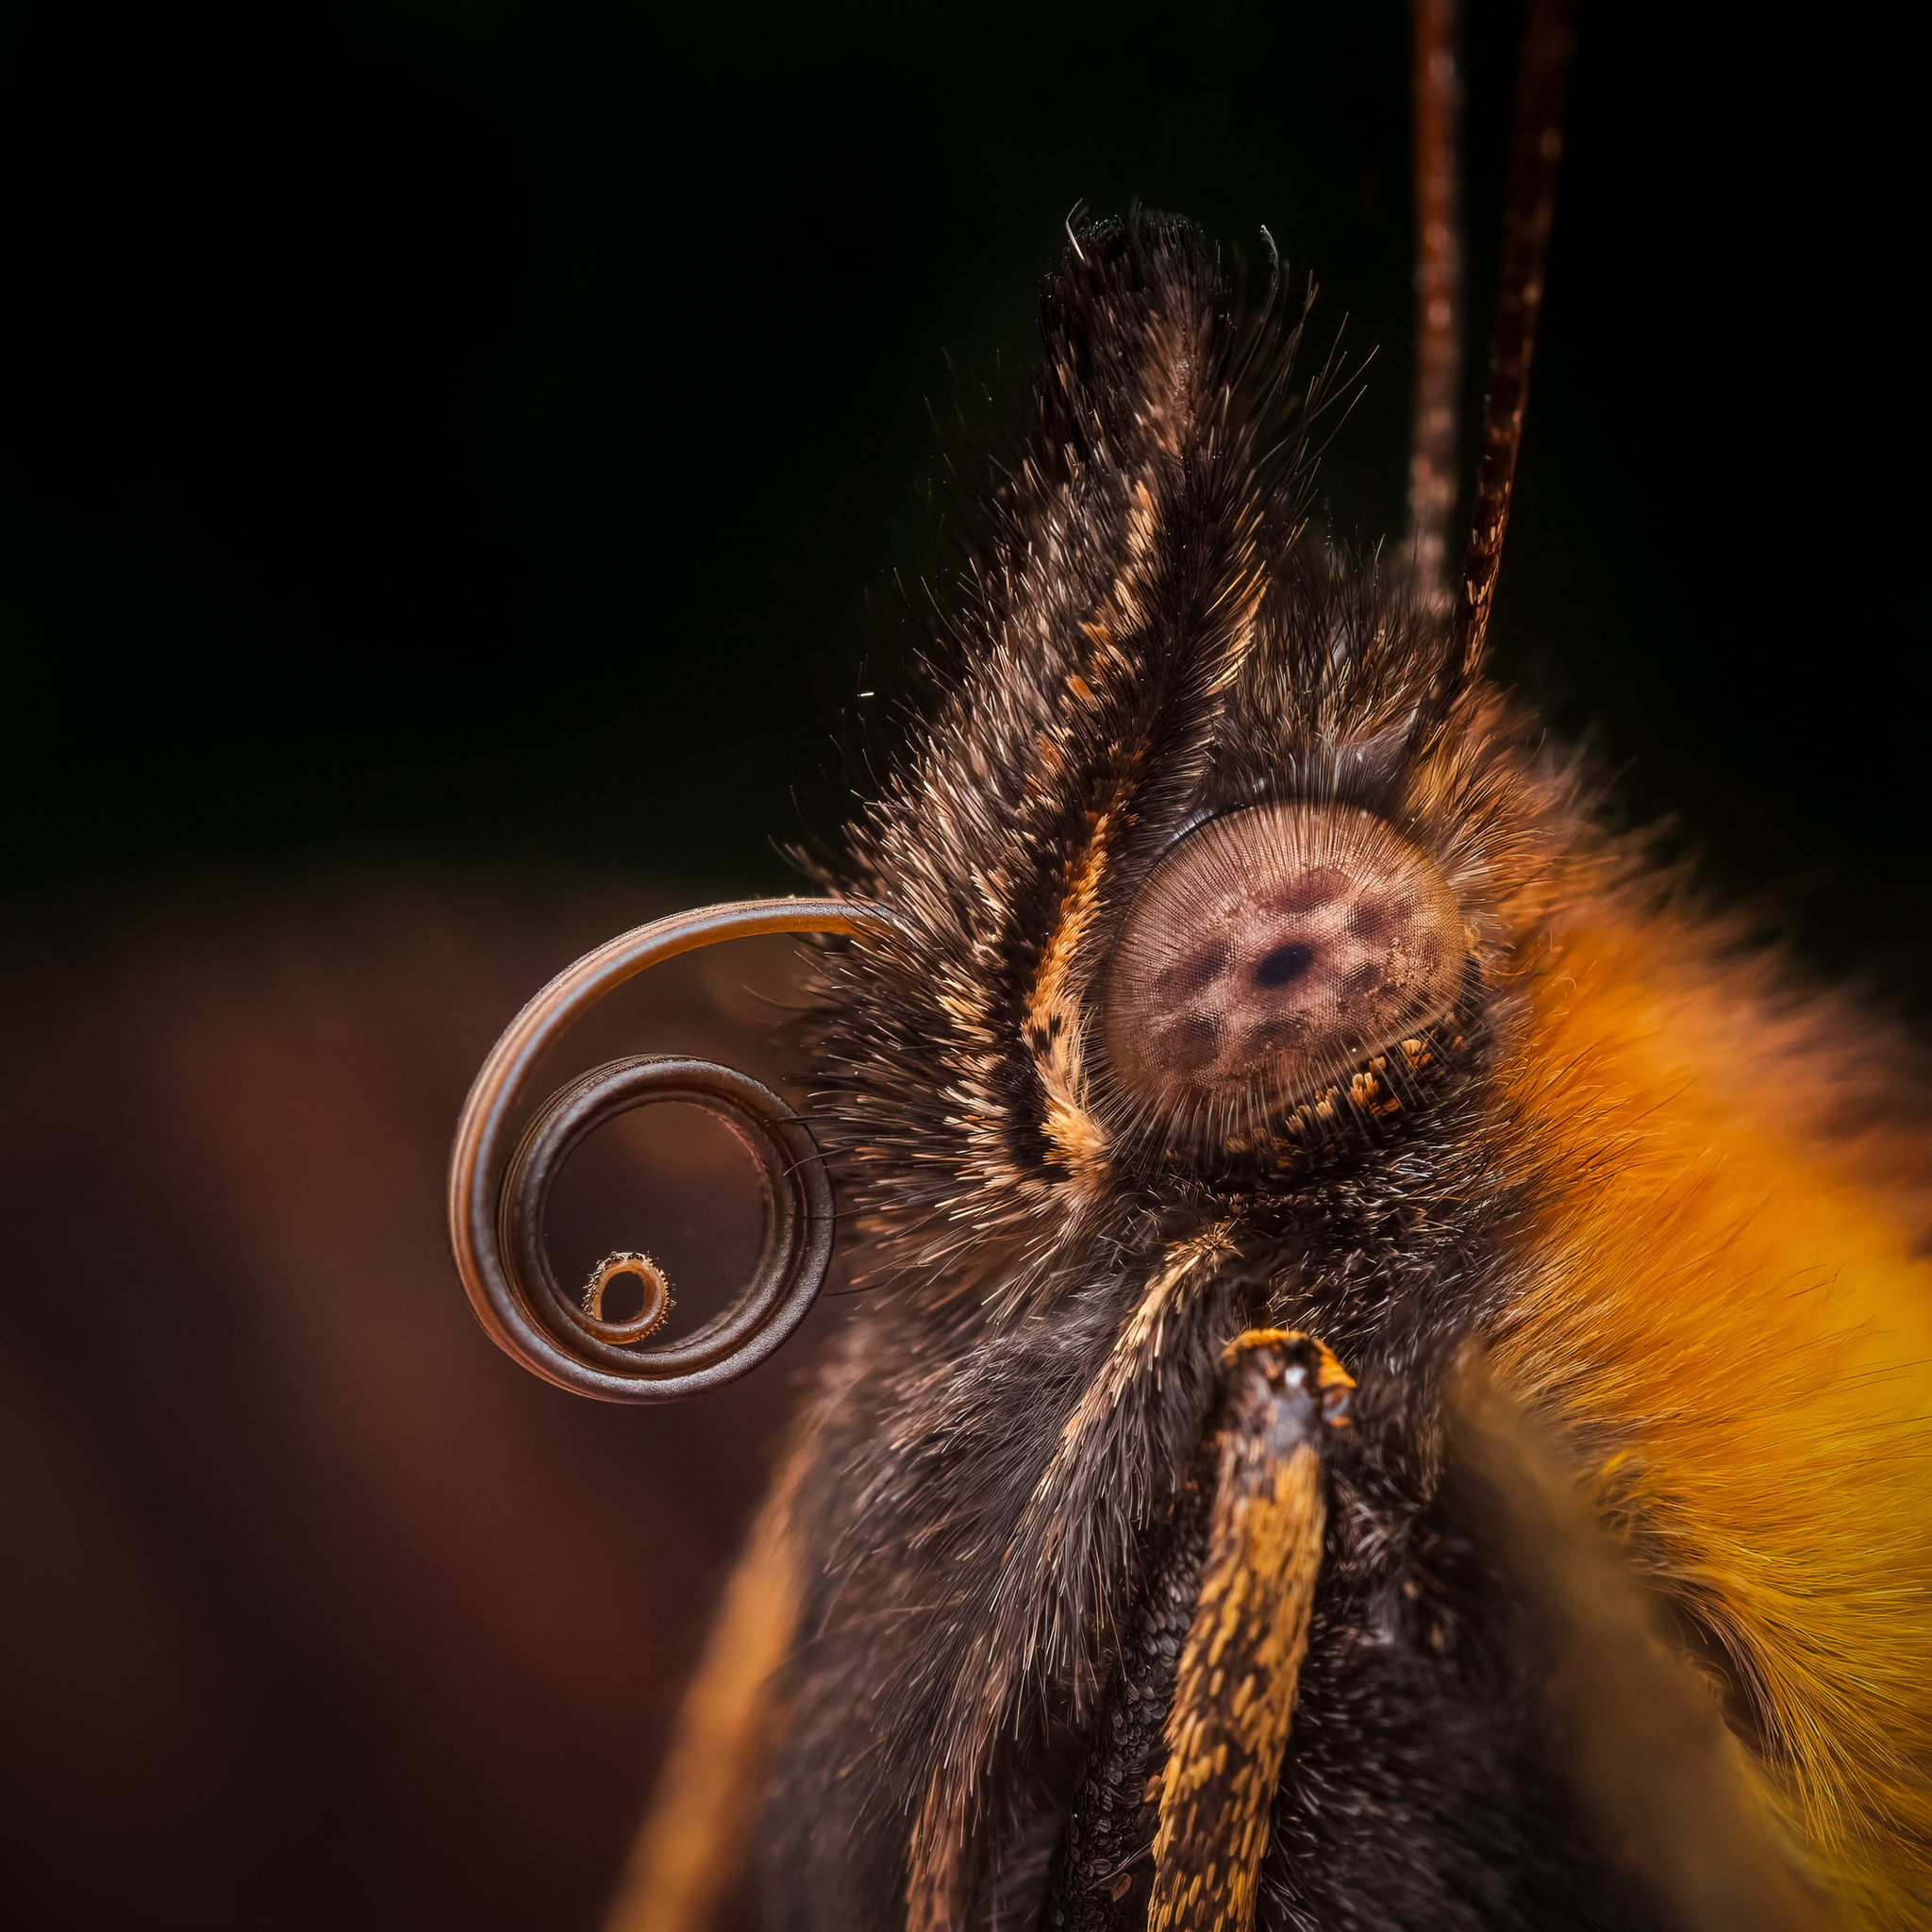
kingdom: Animalia
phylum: Arthropoda
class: Insecta
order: Lepidoptera
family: Nymphalidae
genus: Aglais
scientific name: Aglais io
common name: Peacock
